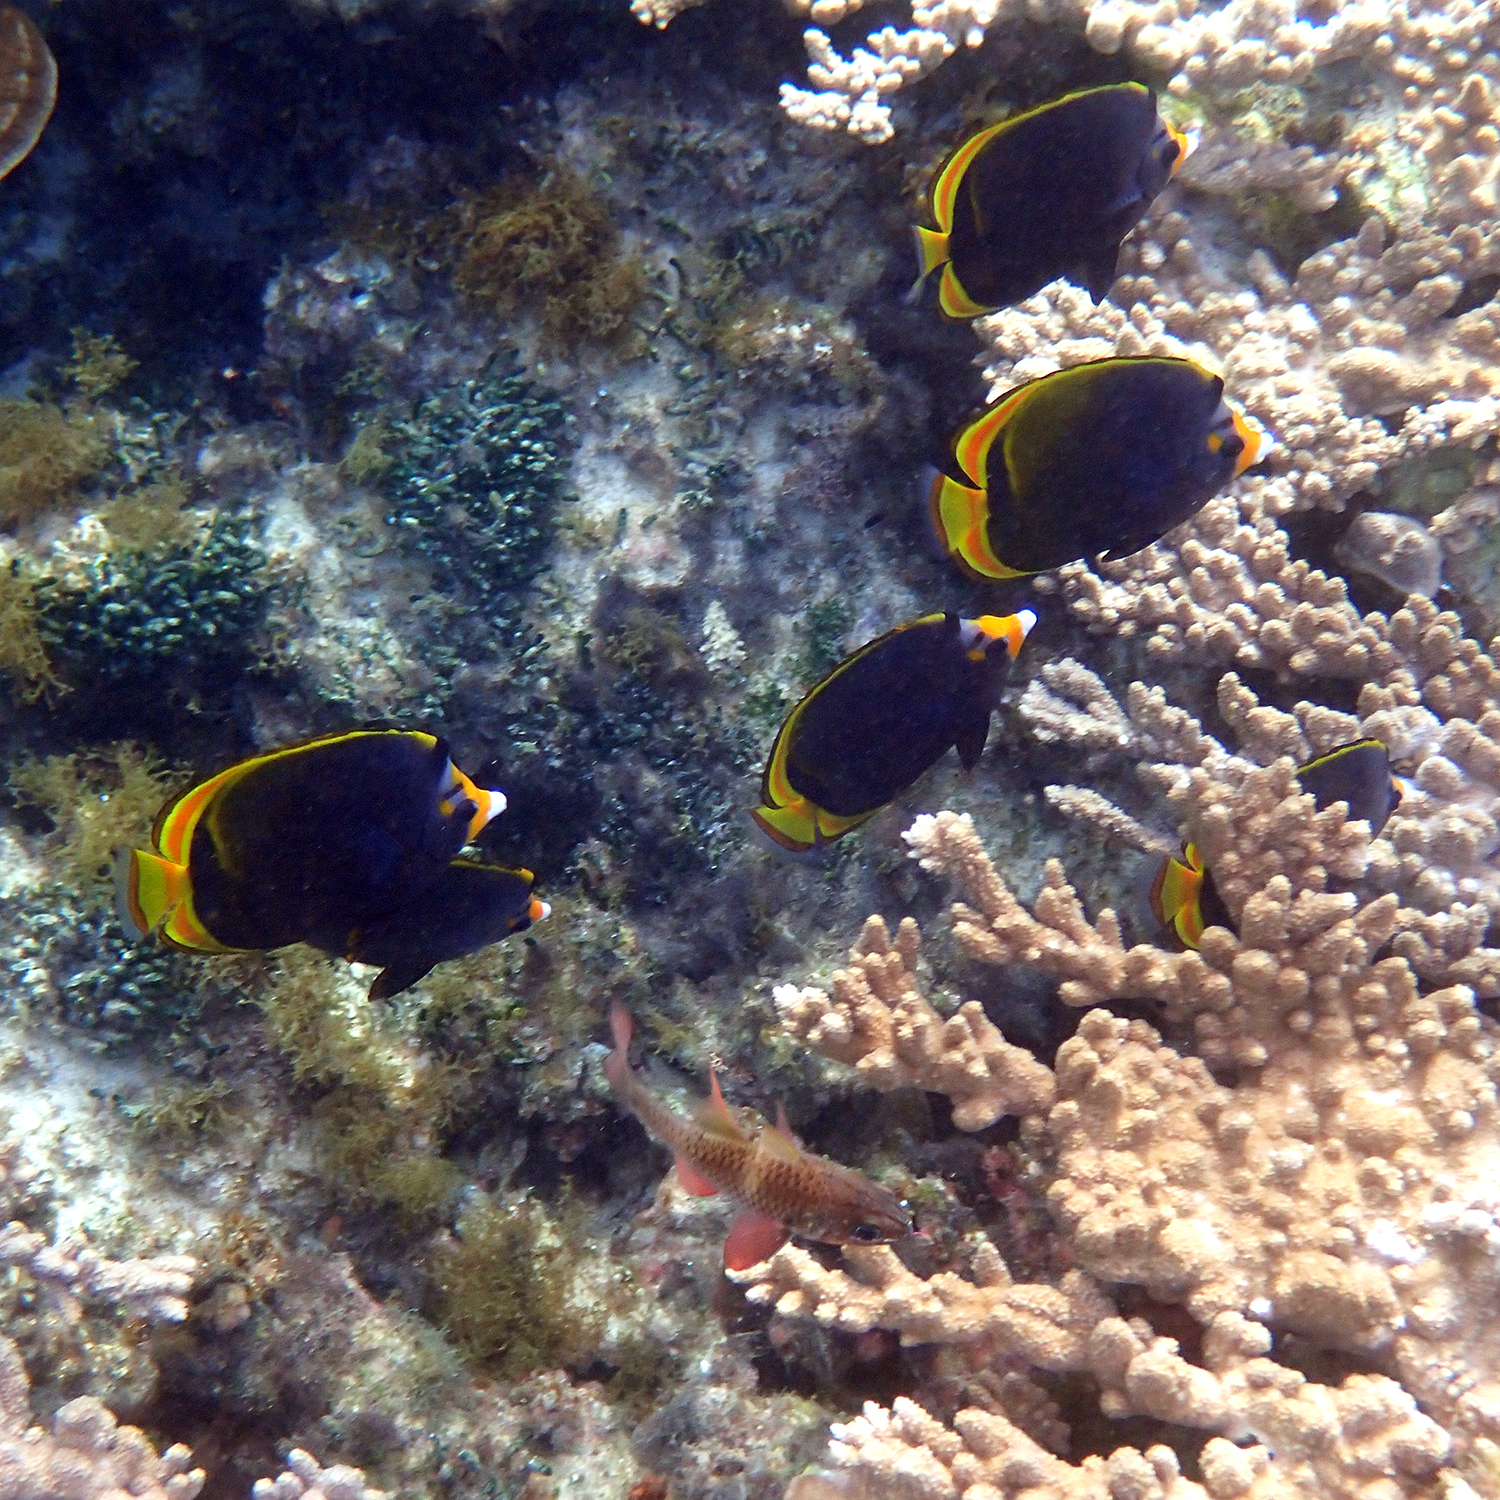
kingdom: Animalia
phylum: Chordata
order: Perciformes
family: Chaetodontidae
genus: Chaetodon
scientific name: Chaetodon flavirostris
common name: Black butterflyfish
